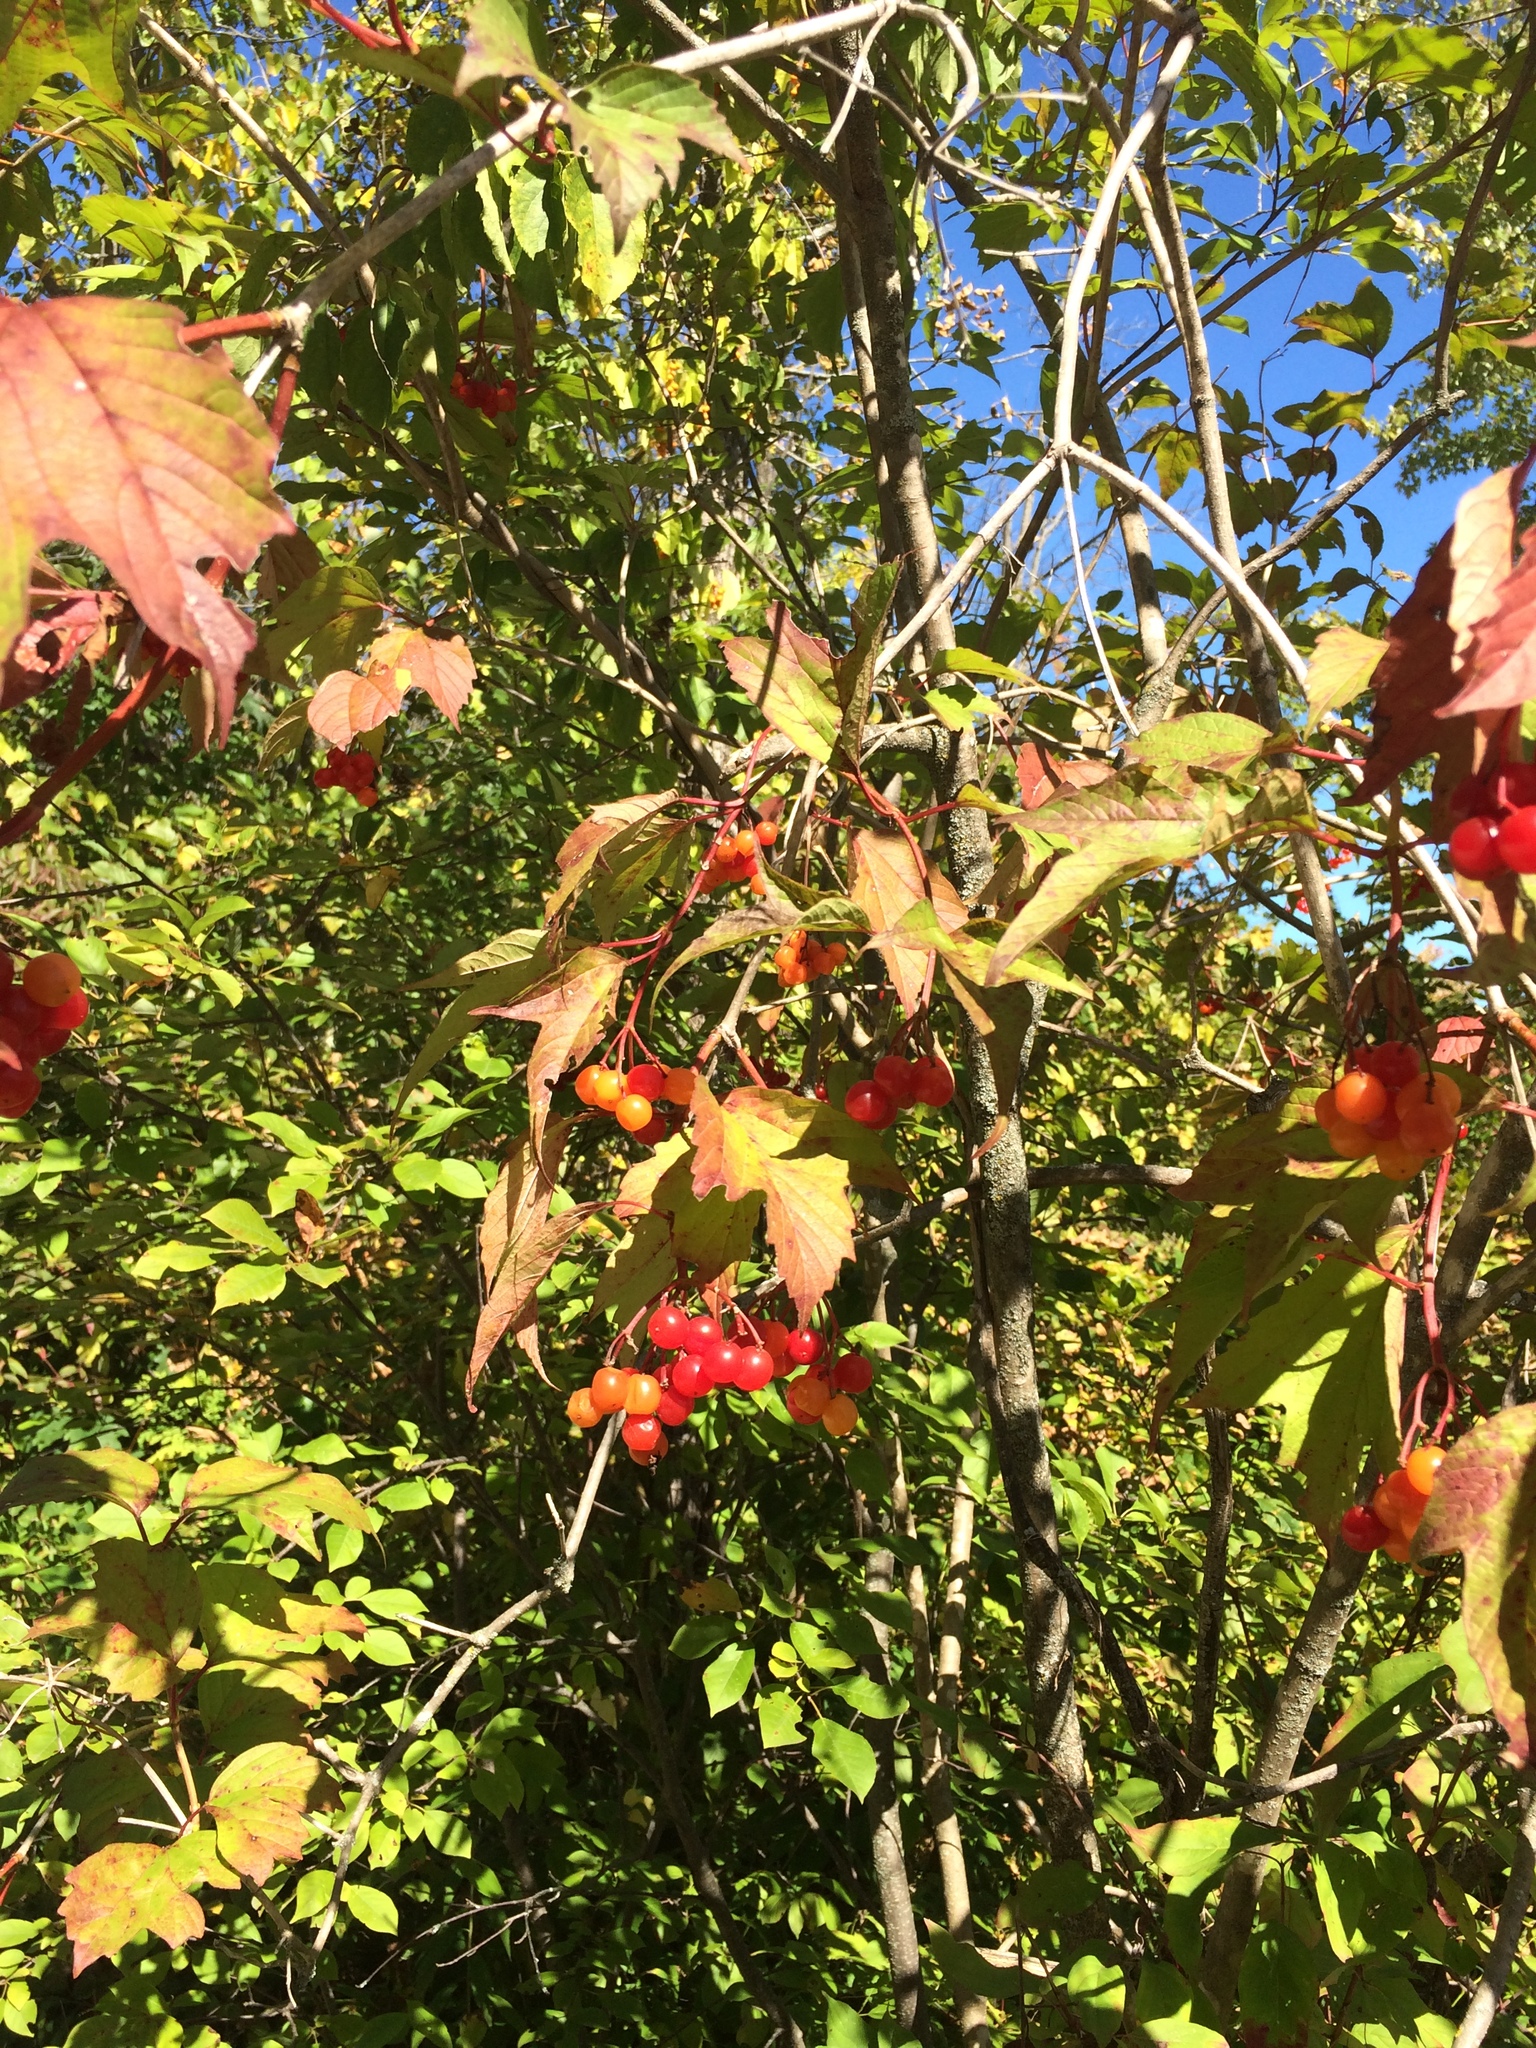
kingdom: Plantae
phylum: Tracheophyta
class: Magnoliopsida
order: Dipsacales
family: Viburnaceae
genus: Viburnum
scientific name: Viburnum trilobum
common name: American cranberrybush
